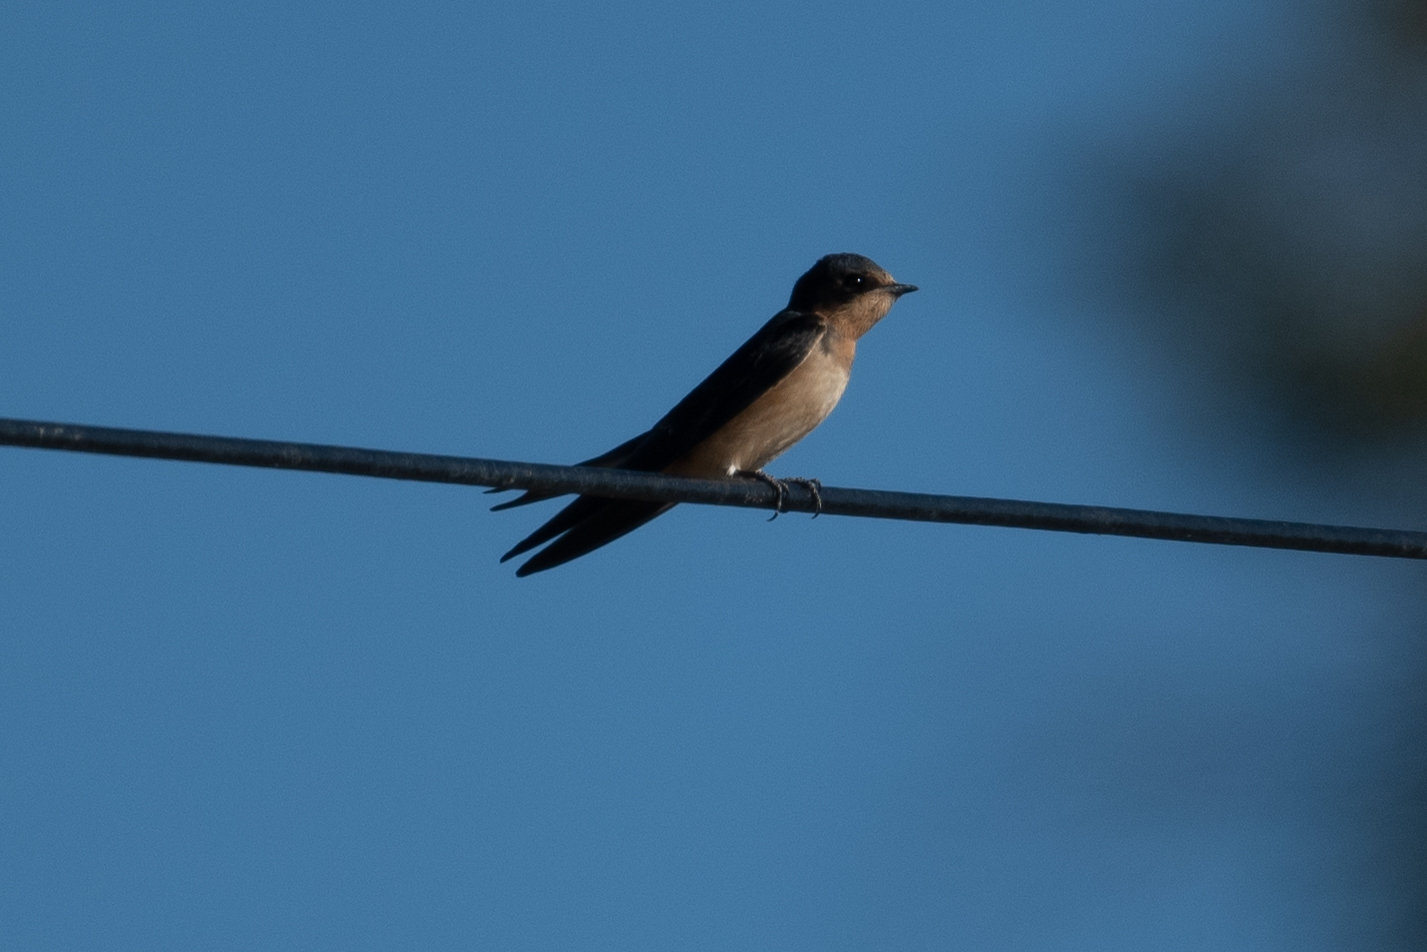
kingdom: Animalia
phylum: Chordata
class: Aves
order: Passeriformes
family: Hirundinidae
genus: Hirundo
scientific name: Hirundo rustica
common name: Barn swallow
